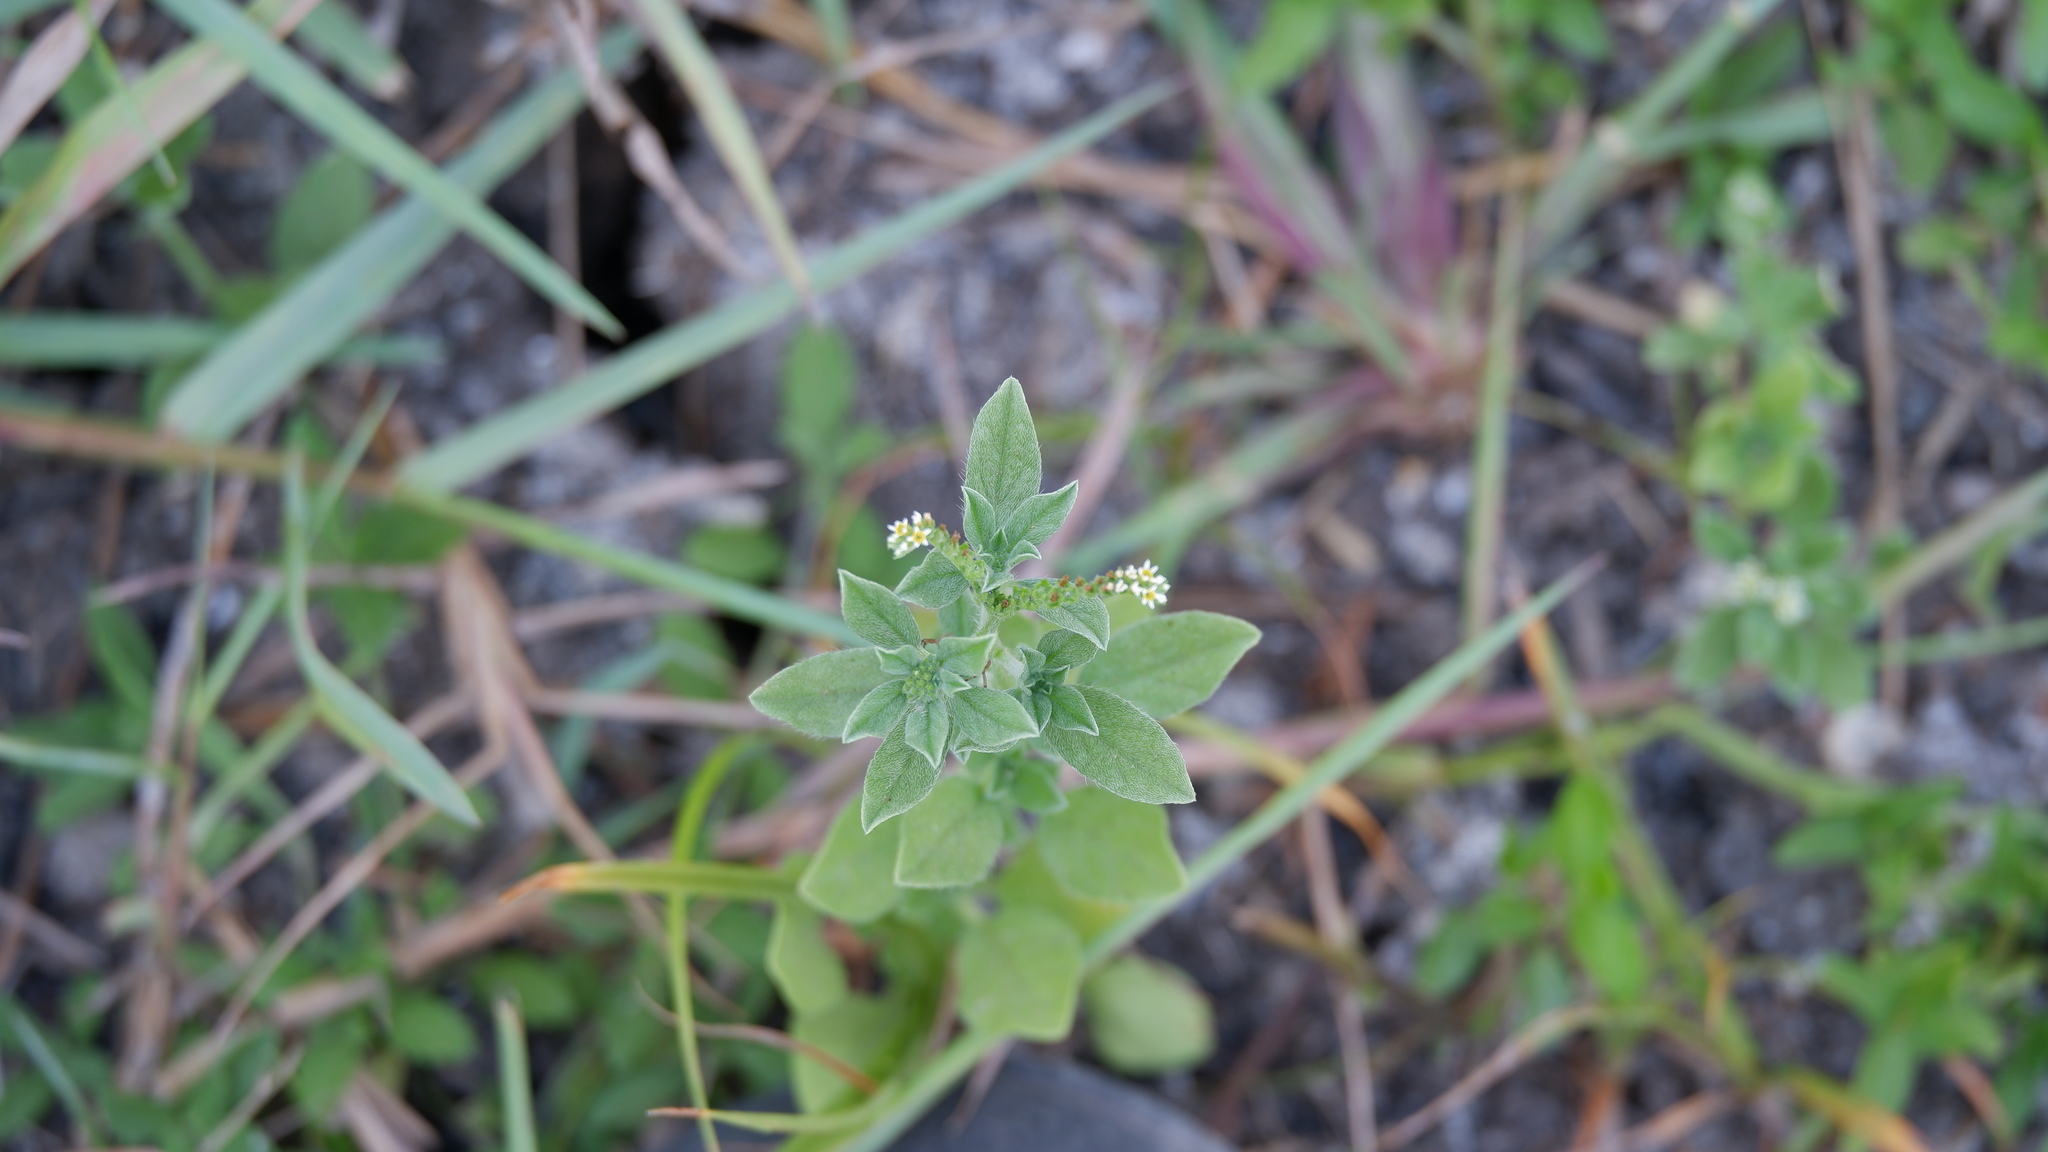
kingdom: Plantae
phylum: Tracheophyta
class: Magnoliopsida
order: Boraginales
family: Heliotropiaceae
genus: Euploca
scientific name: Euploca procumbens
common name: Fourspike heliotrope
